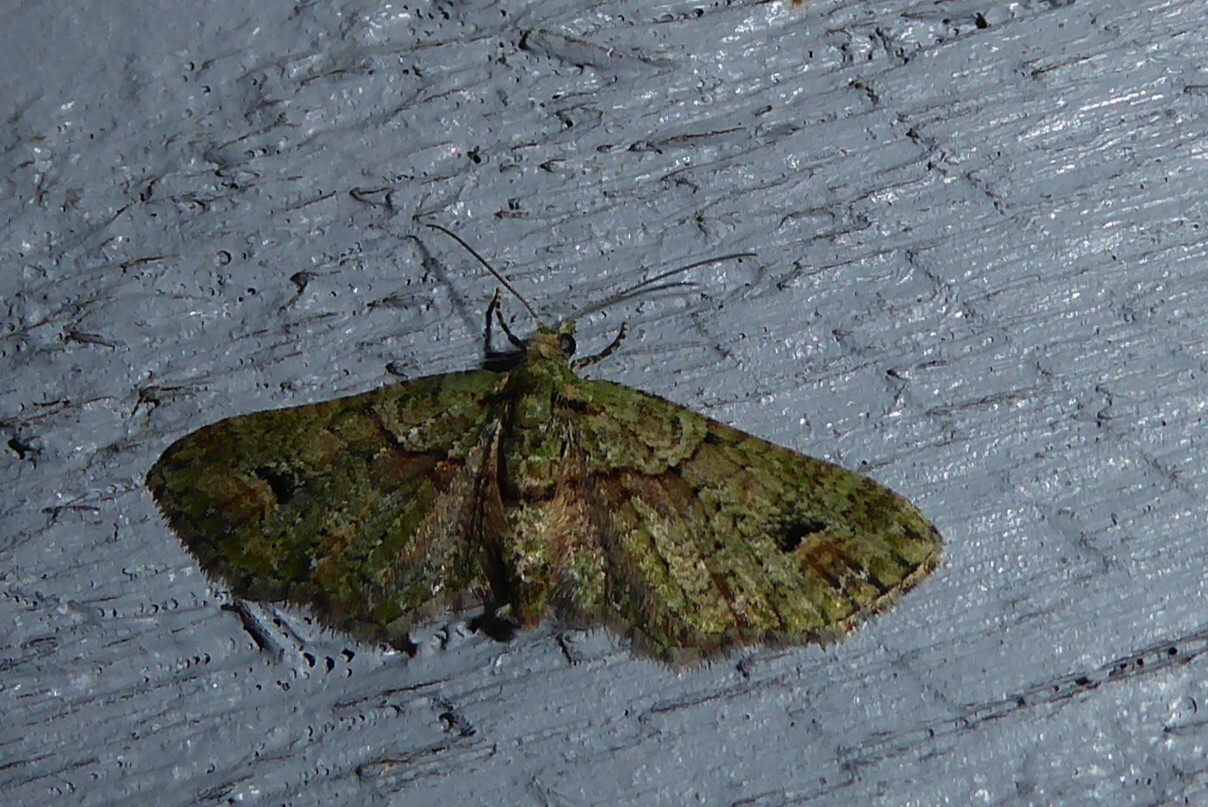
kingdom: Animalia
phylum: Arthropoda
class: Insecta
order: Lepidoptera
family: Geometridae
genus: Idaea
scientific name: Idaea mutanda
